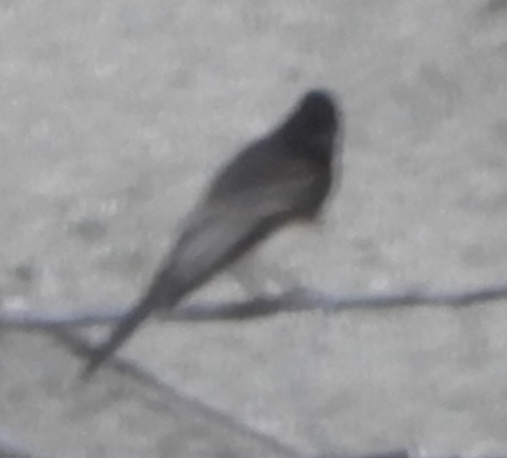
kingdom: Animalia
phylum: Chordata
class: Aves
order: Passeriformes
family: Tyrannidae
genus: Sayornis
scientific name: Sayornis nigricans
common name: Black phoebe
